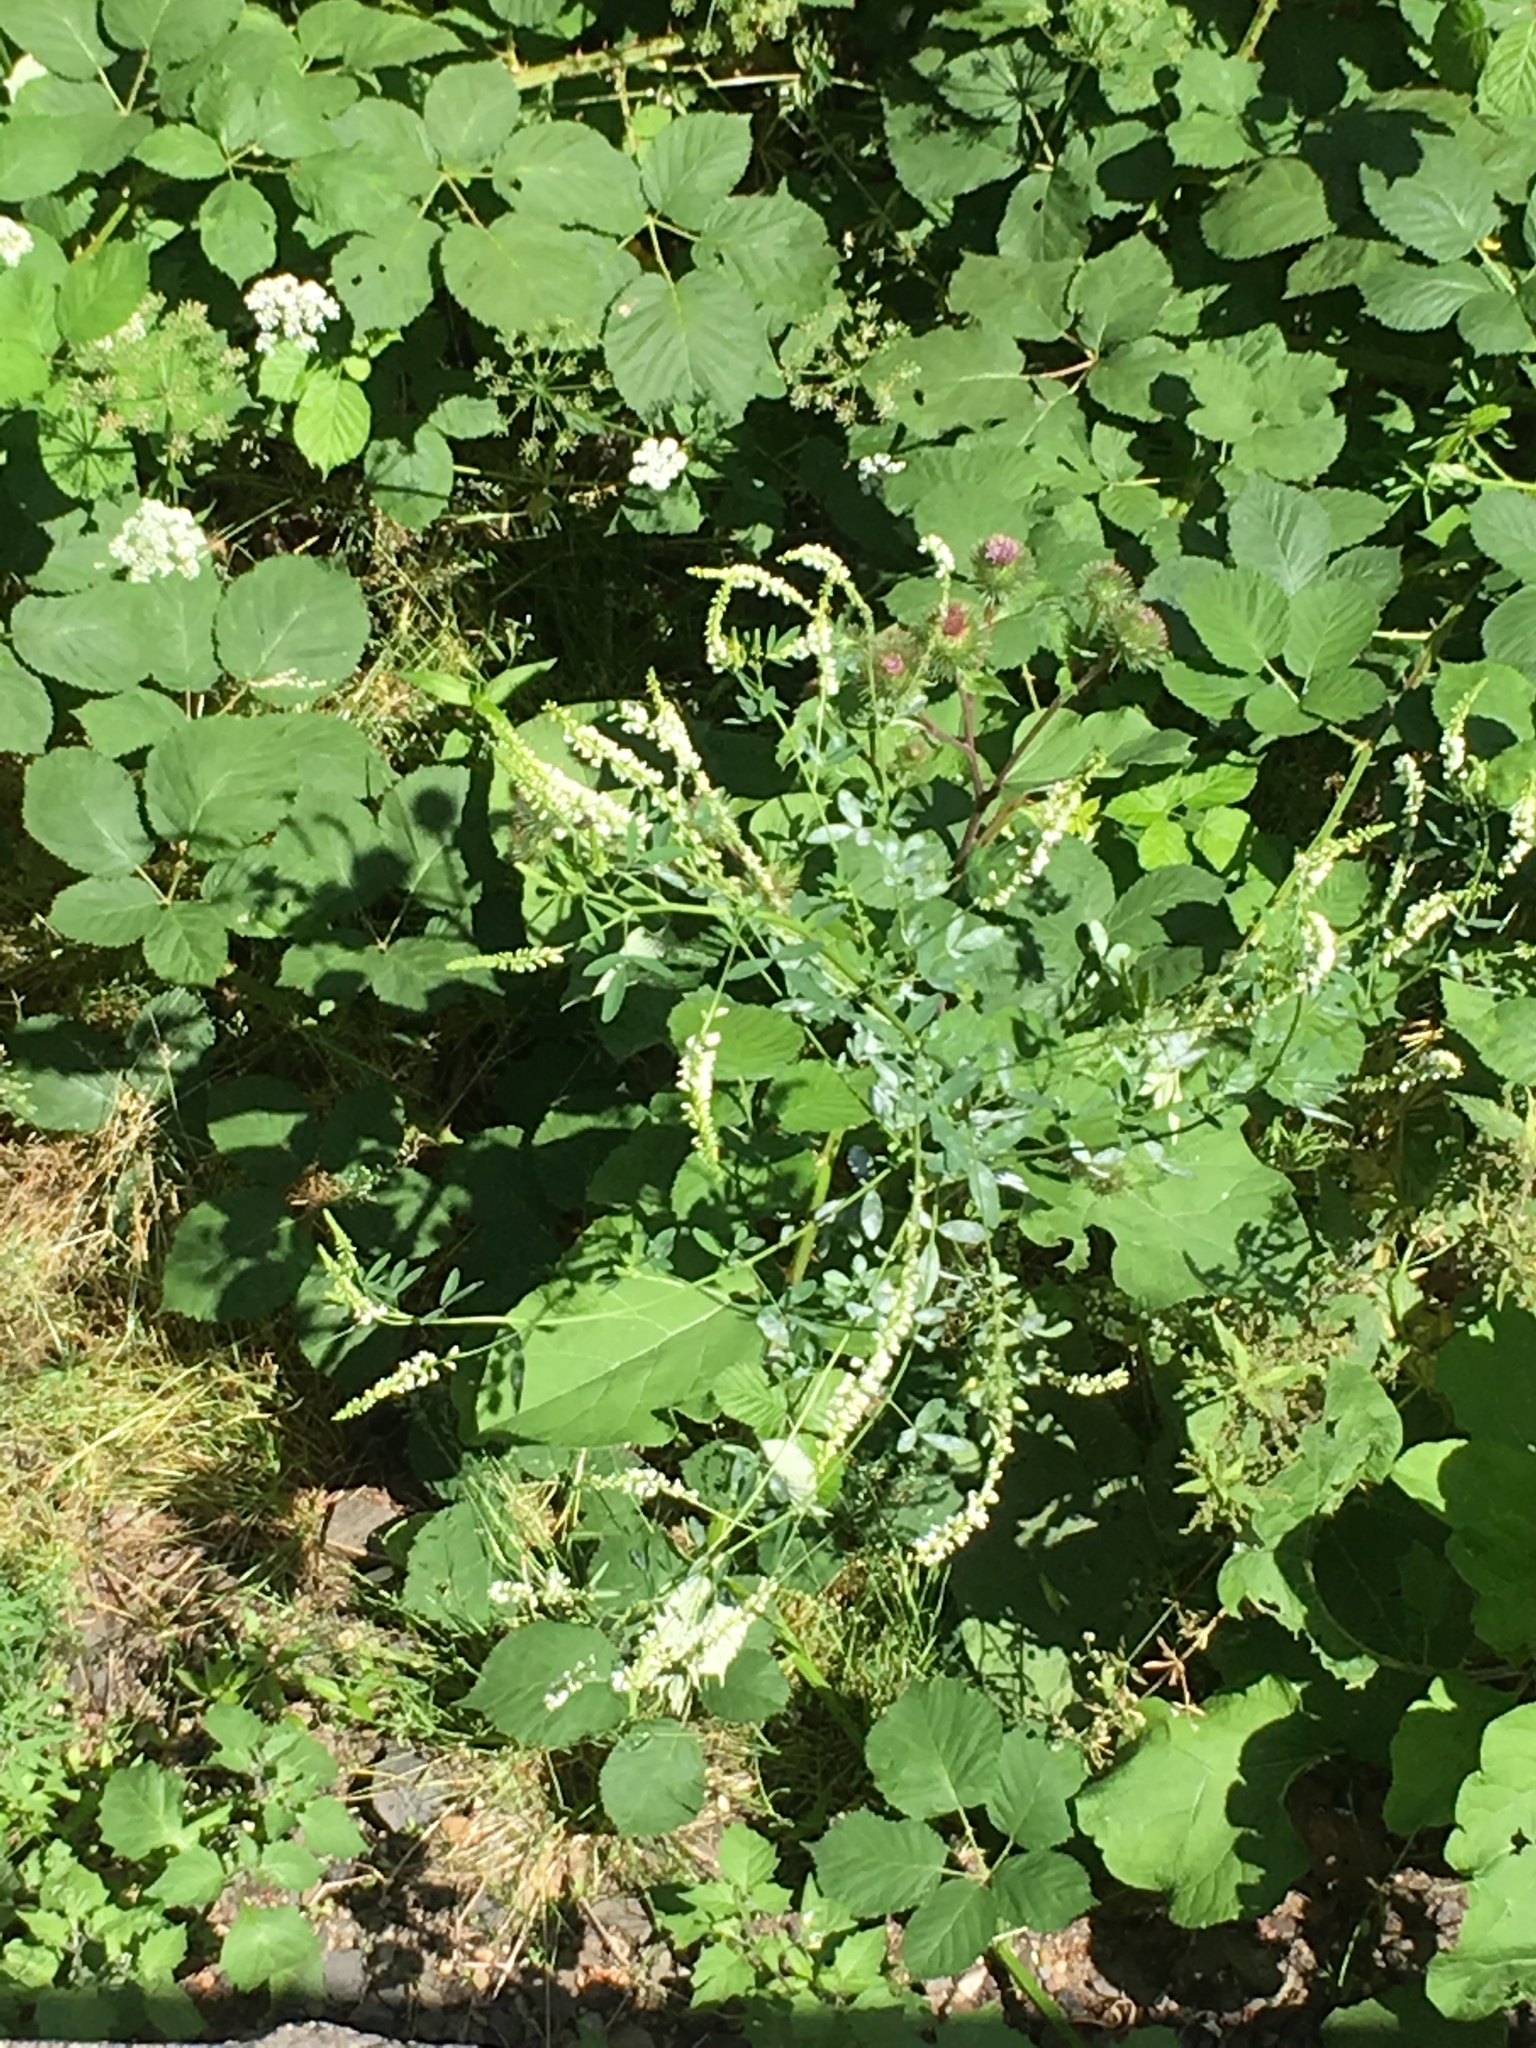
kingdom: Plantae
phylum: Tracheophyta
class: Magnoliopsida
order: Fabales
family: Fabaceae
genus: Melilotus
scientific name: Melilotus albus
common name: White melilot
